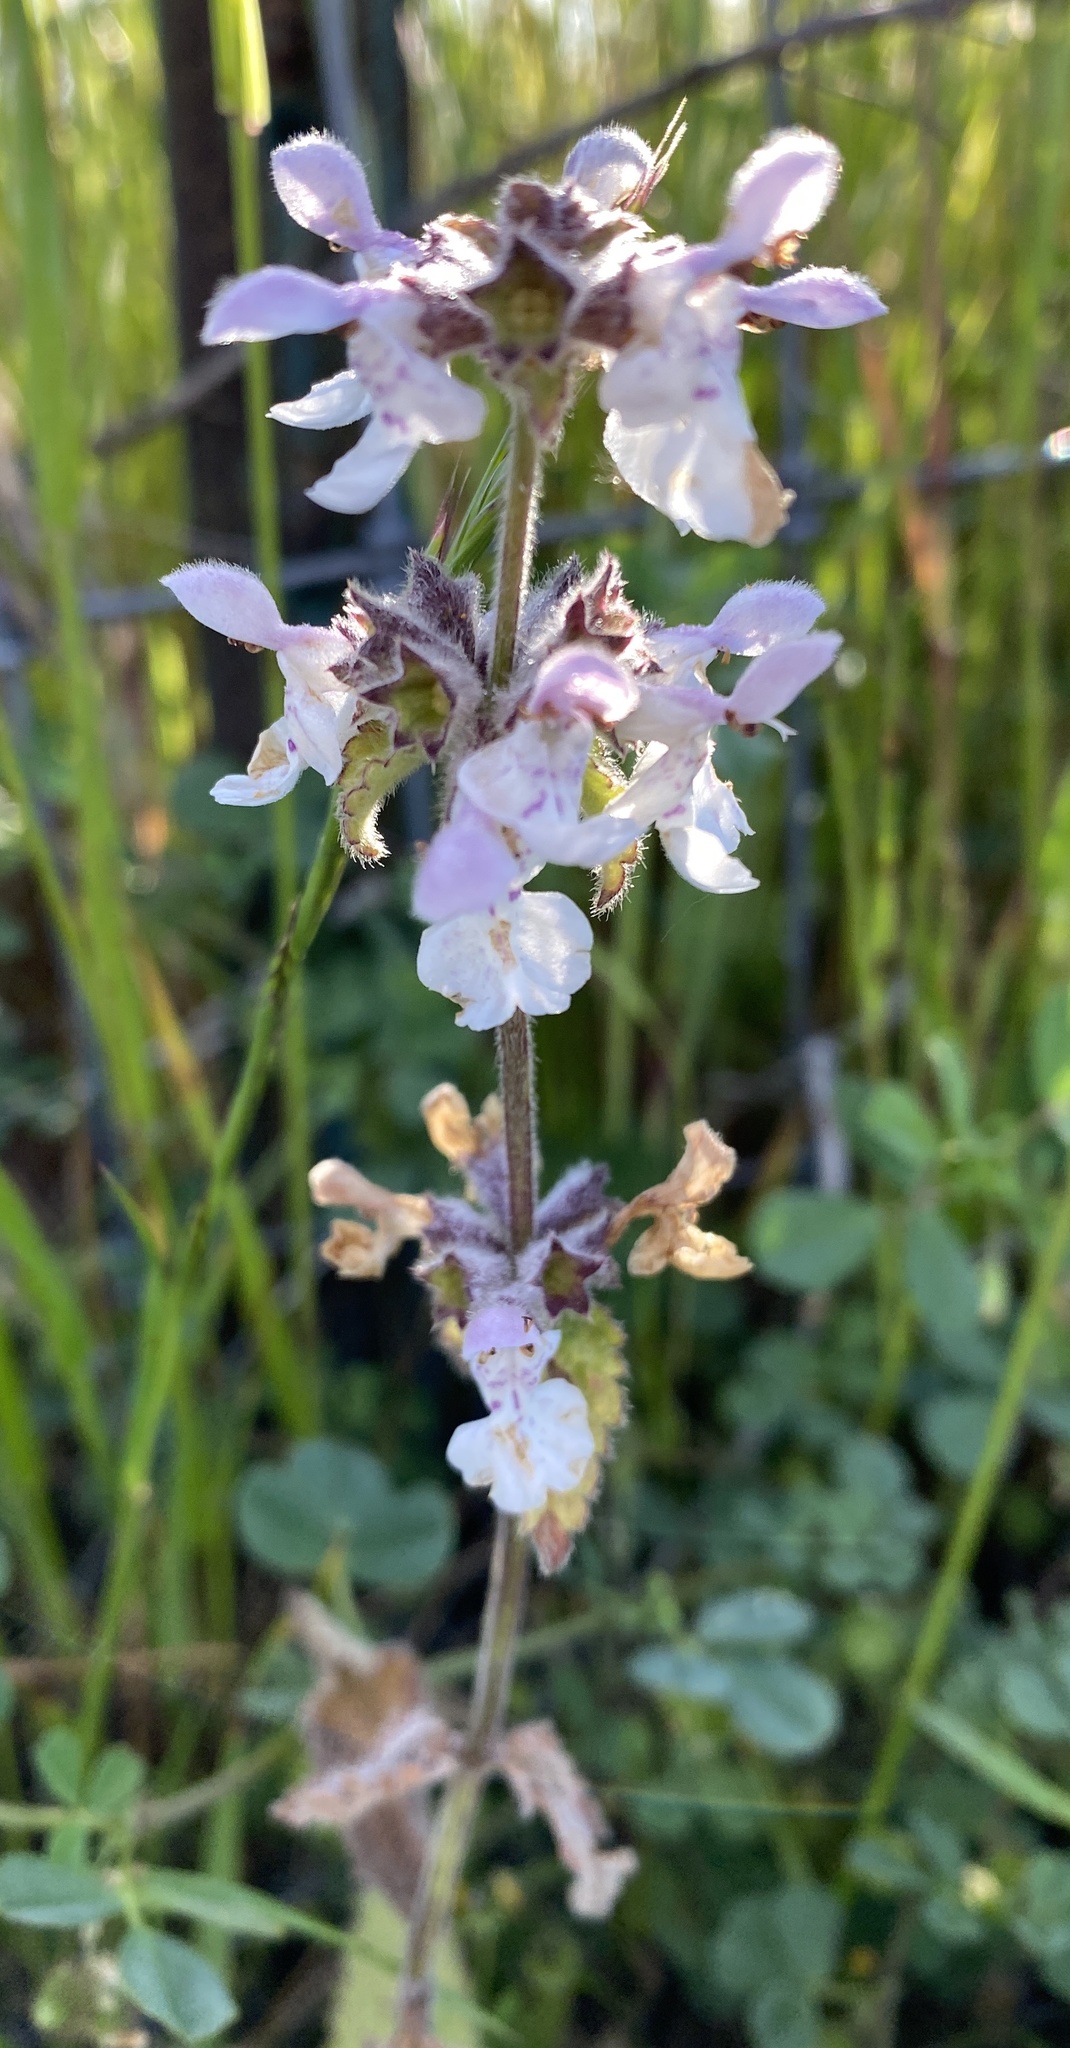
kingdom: Plantae
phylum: Tracheophyta
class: Magnoliopsida
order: Lamiales
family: Lamiaceae
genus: Stachys
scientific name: Stachys rigida
